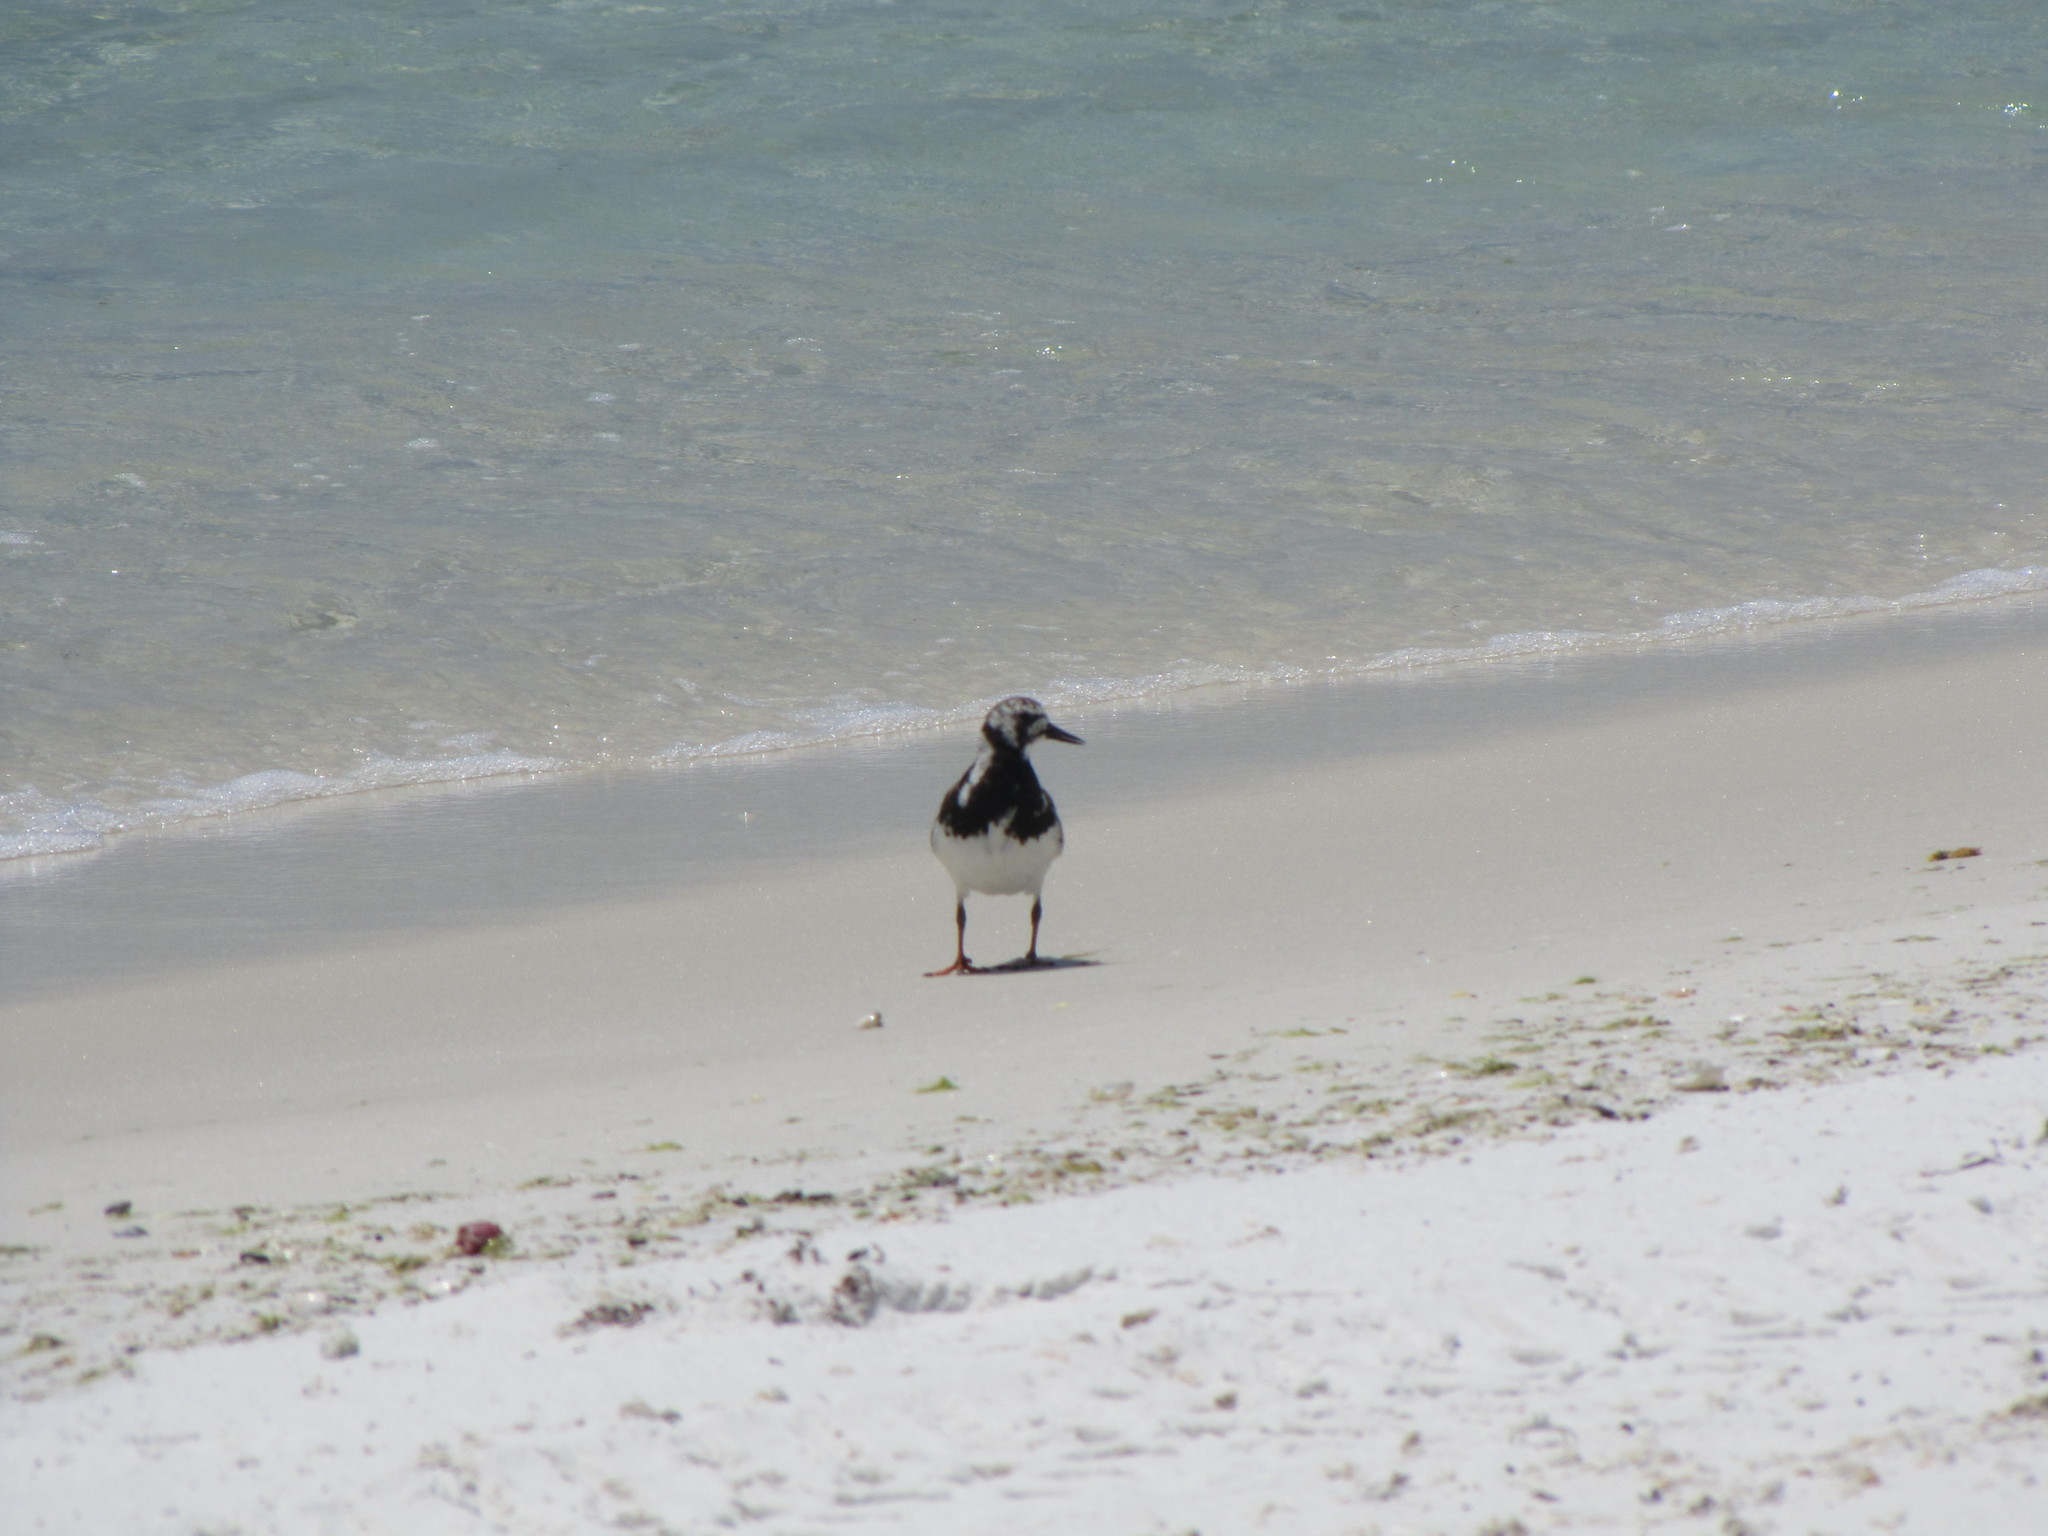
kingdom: Animalia
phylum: Chordata
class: Aves
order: Charadriiformes
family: Scolopacidae
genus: Arenaria
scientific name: Arenaria interpres
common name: Ruddy turnstone
